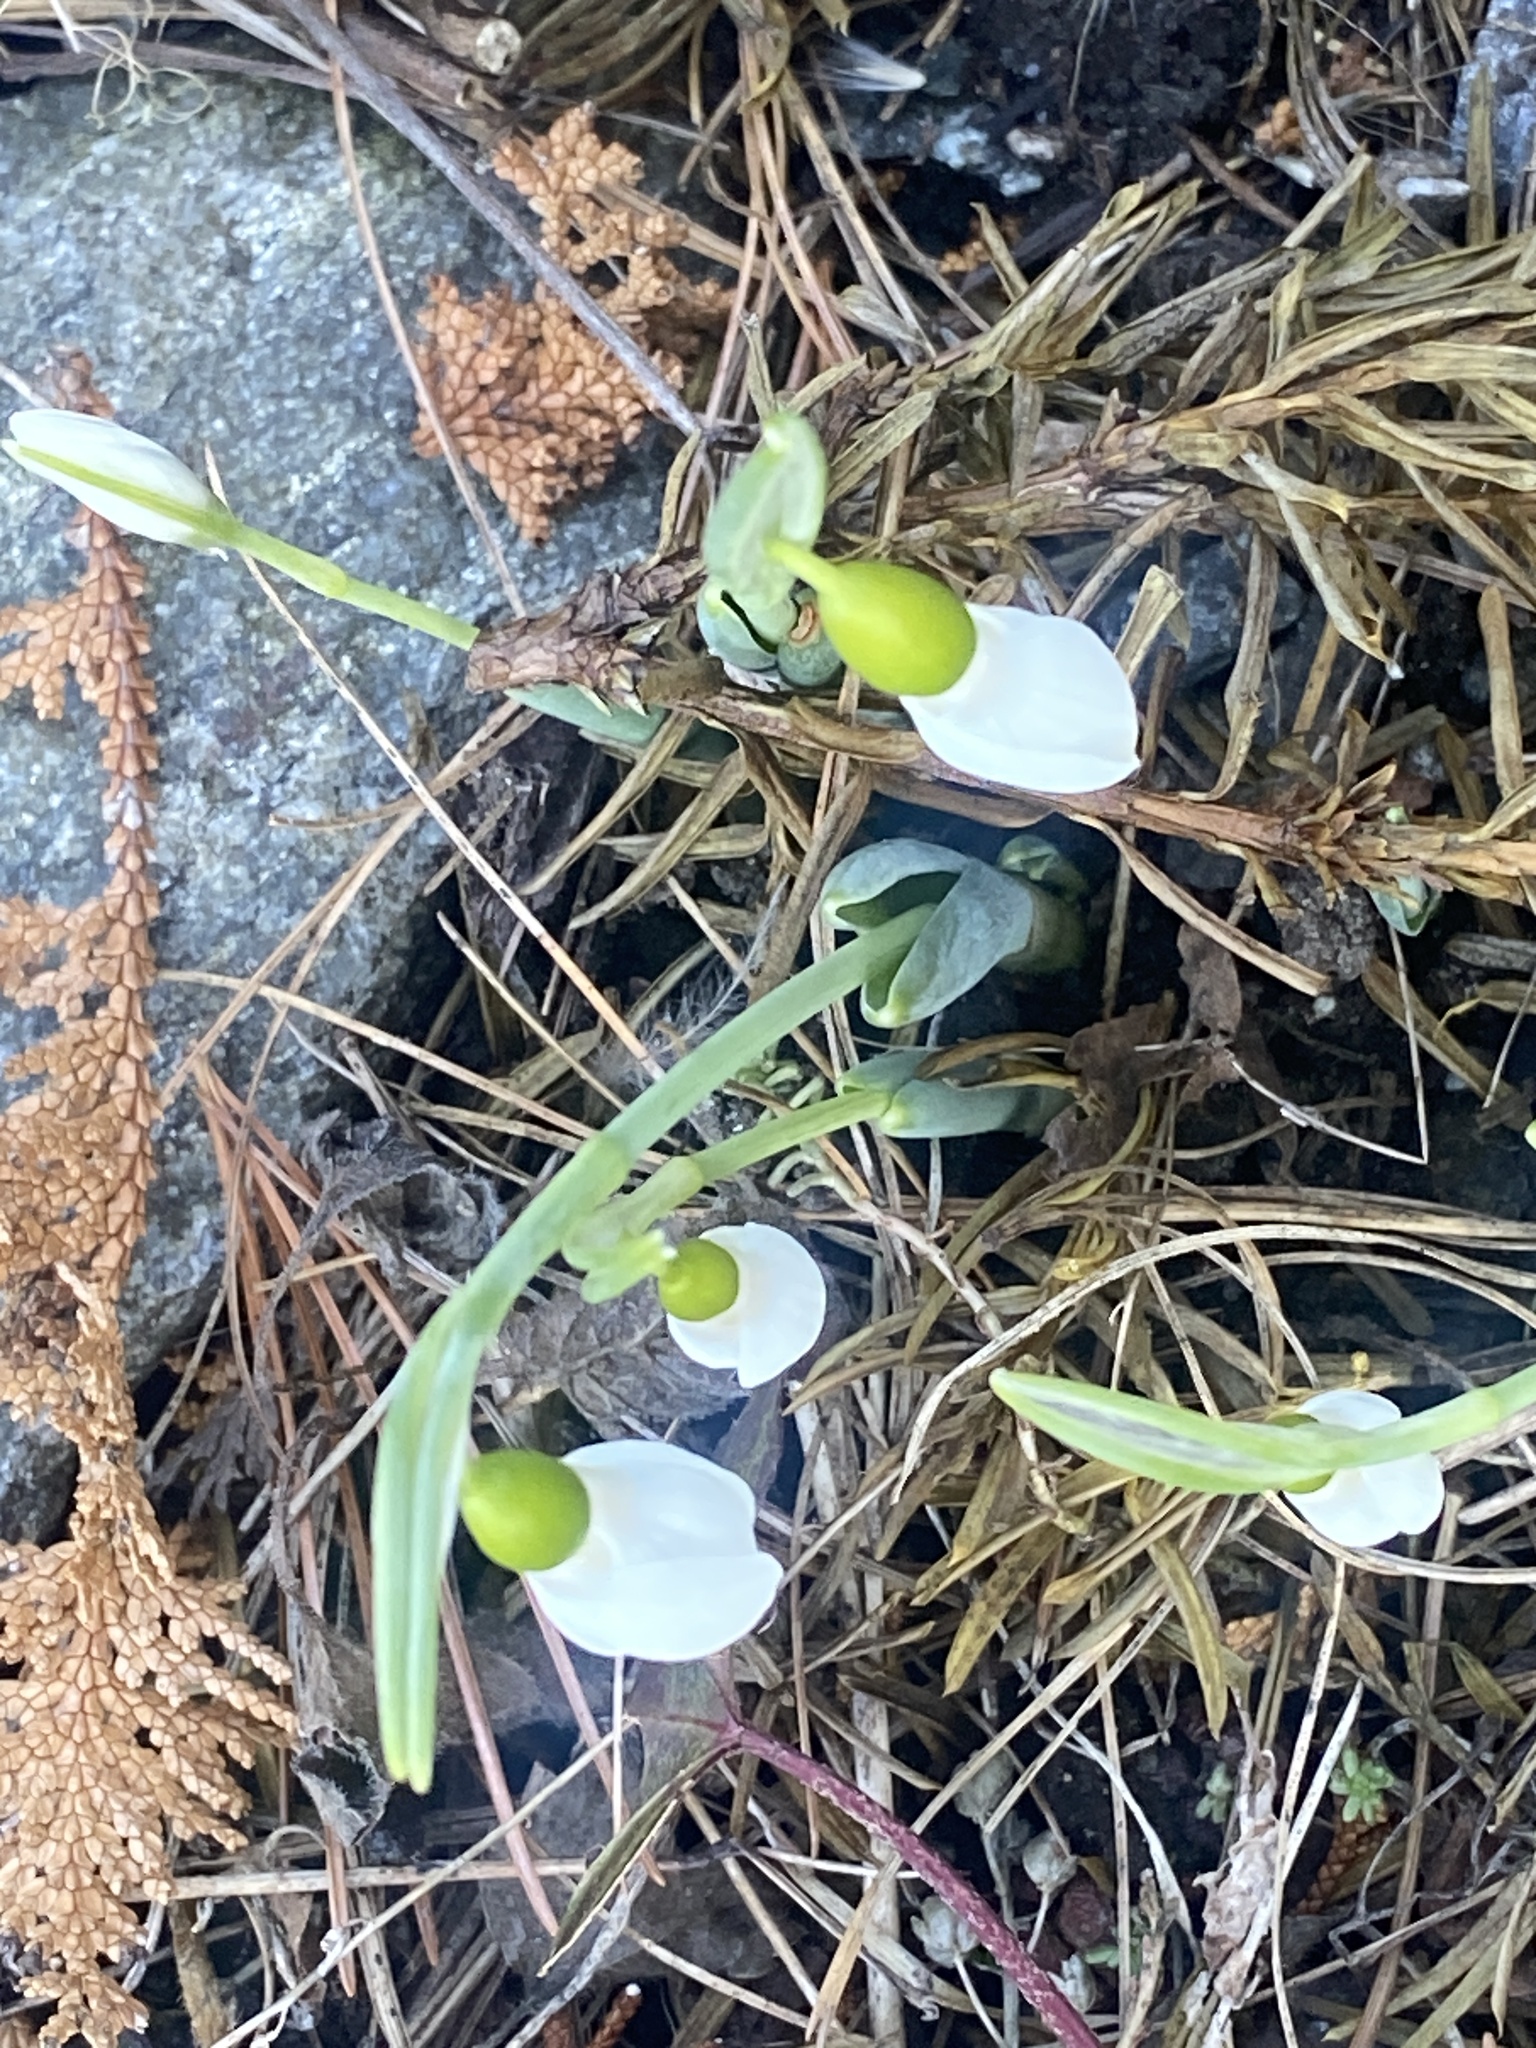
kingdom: Plantae
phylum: Tracheophyta
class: Liliopsida
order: Asparagales
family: Amaryllidaceae
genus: Galanthus
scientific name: Galanthus elwesii
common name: Greater snowdrop
